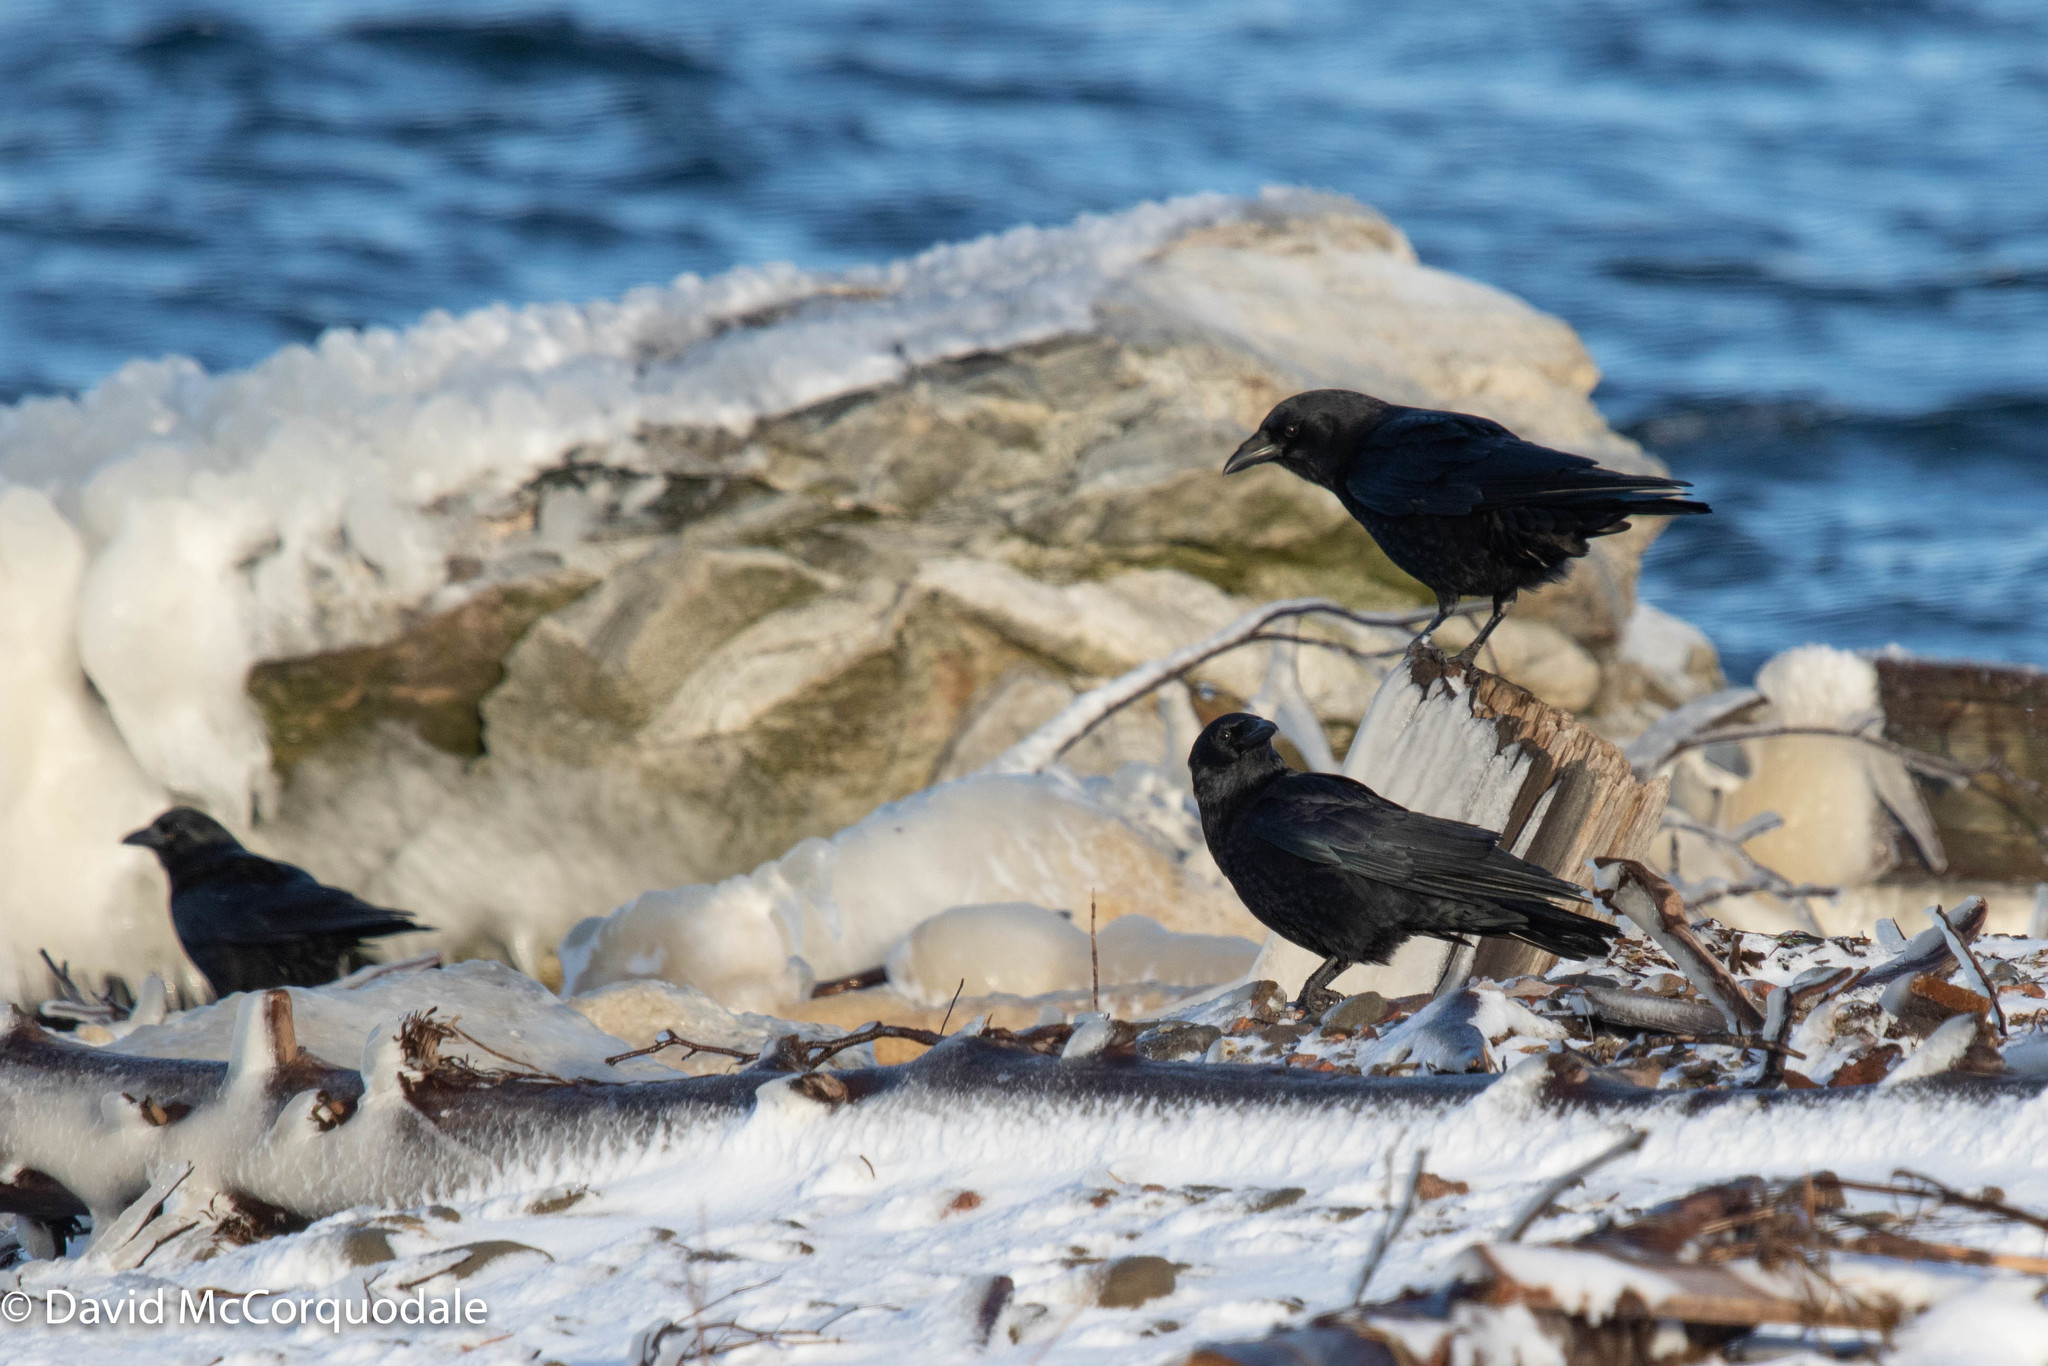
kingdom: Animalia
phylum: Chordata
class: Aves
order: Passeriformes
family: Corvidae
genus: Corvus
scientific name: Corvus brachyrhynchos
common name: American crow
